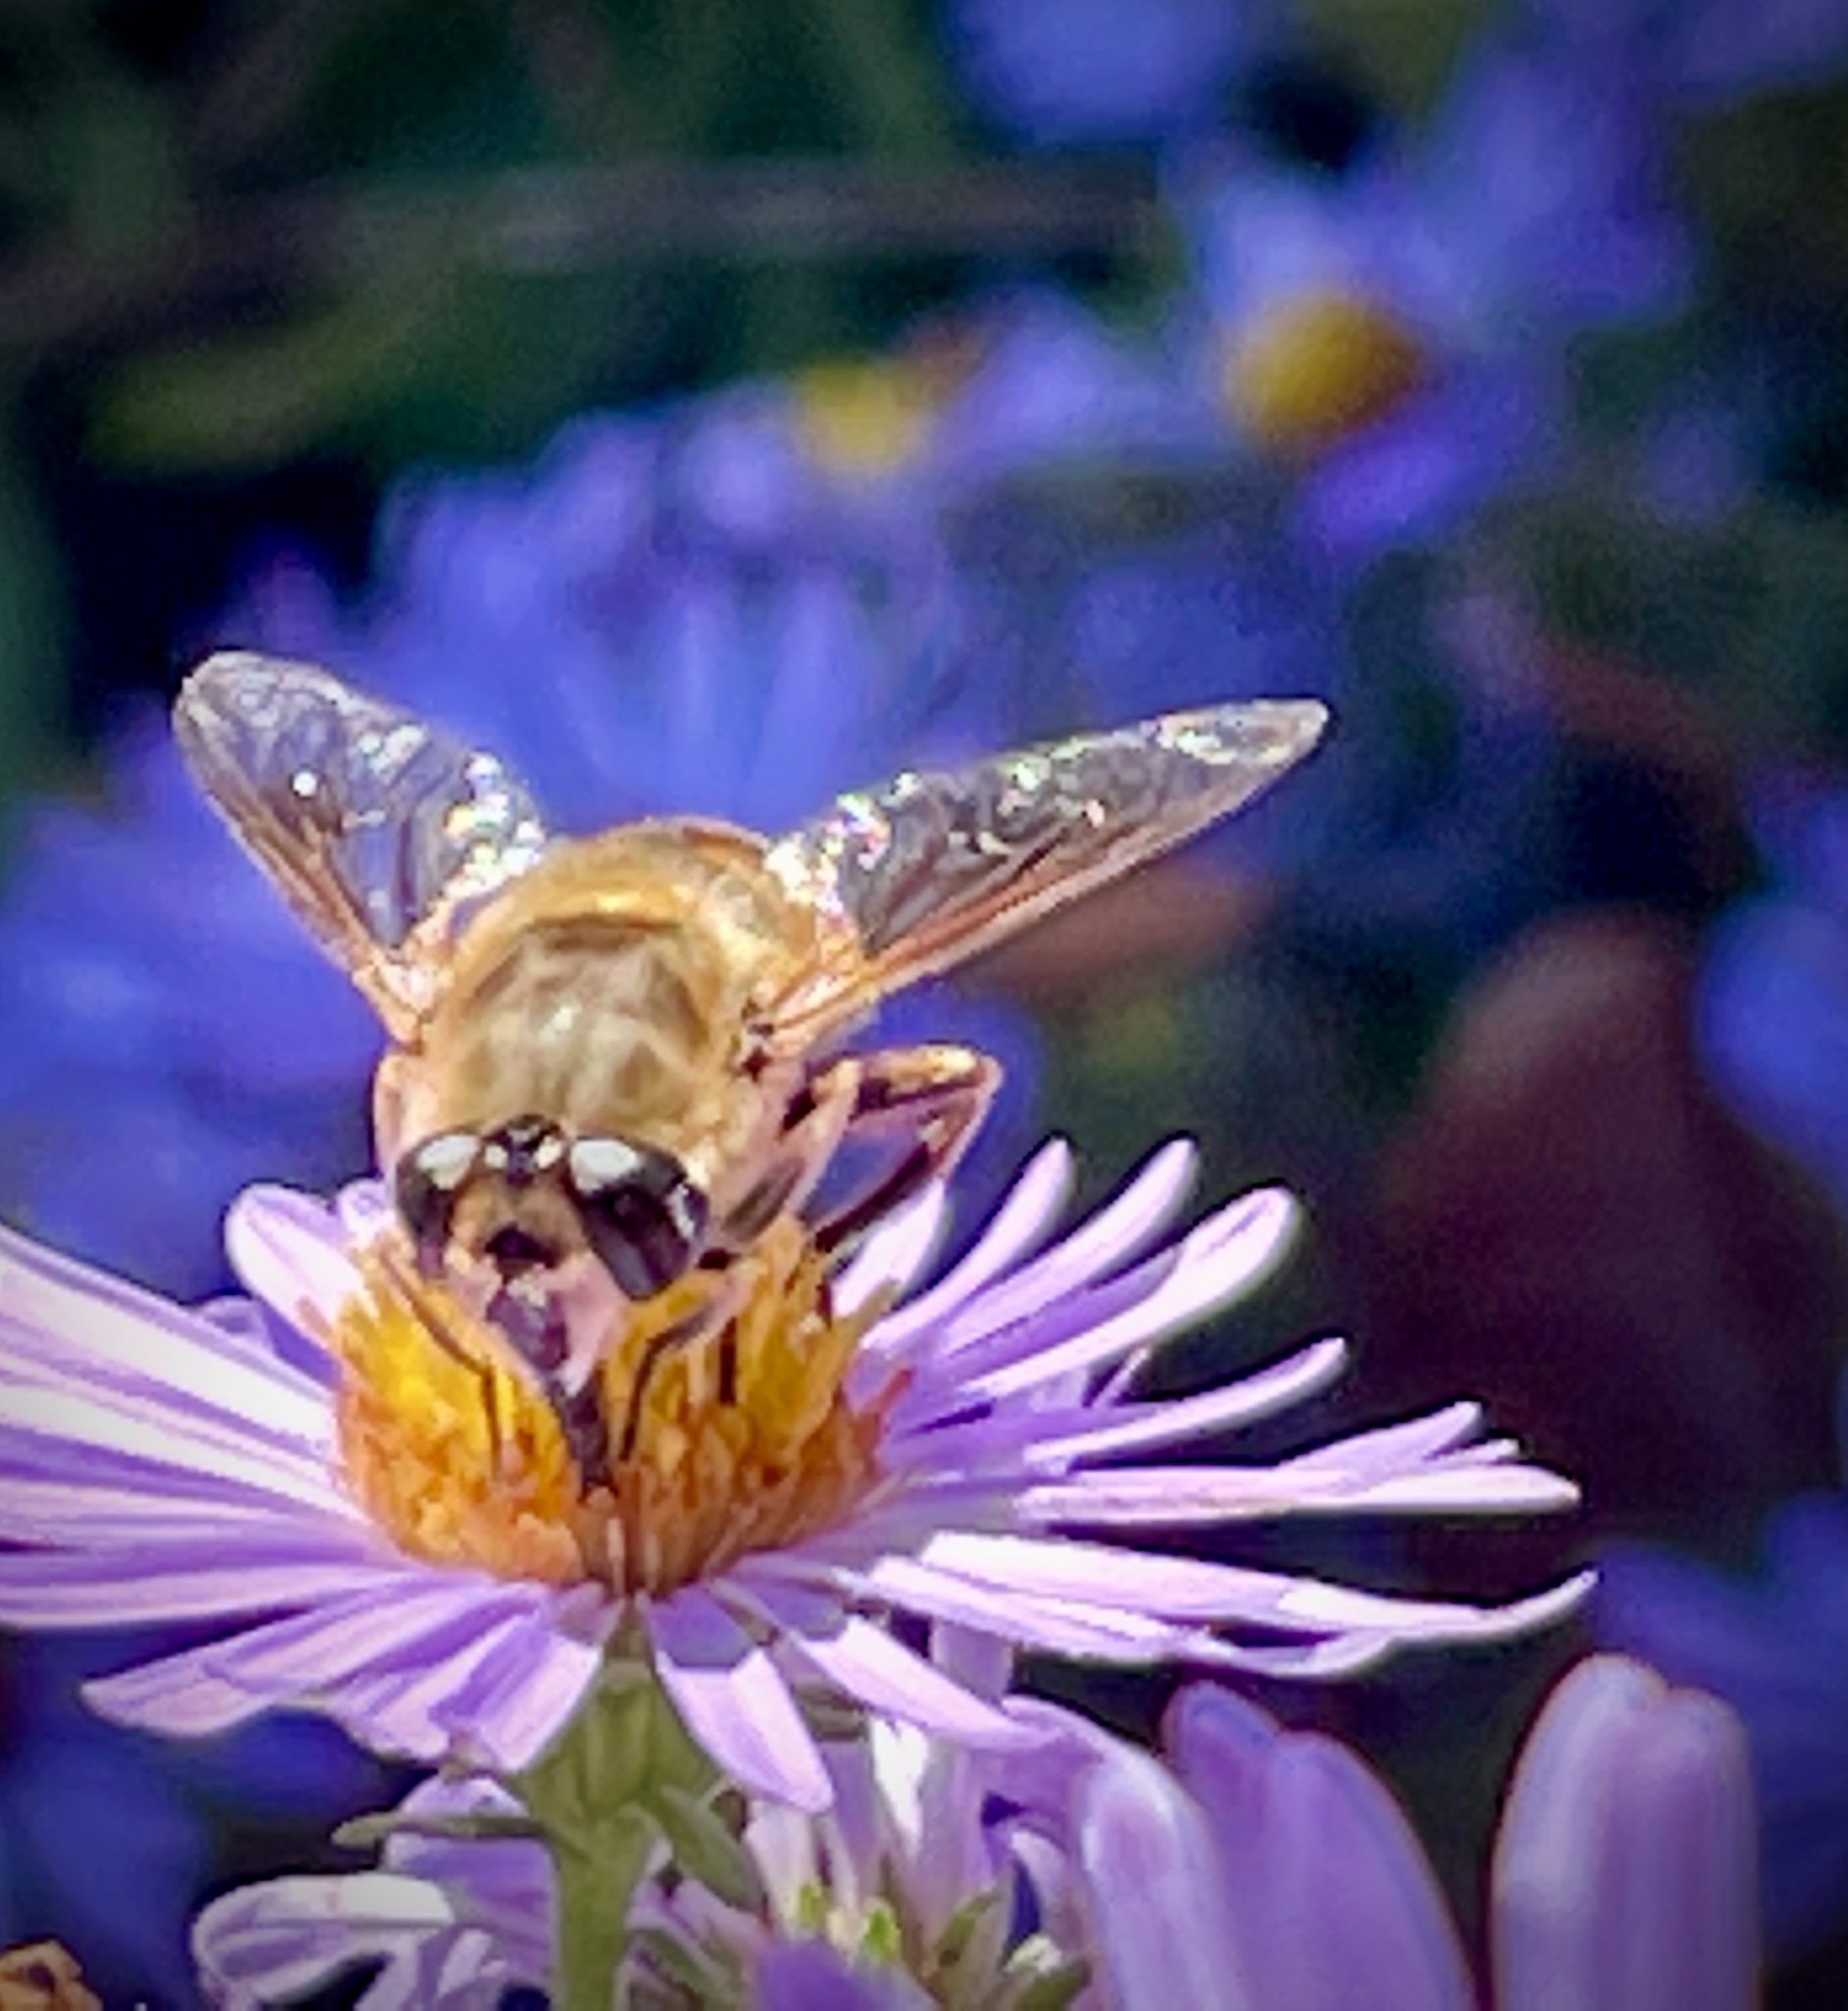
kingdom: Animalia
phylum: Arthropoda
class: Insecta
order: Diptera
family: Syrphidae
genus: Eristalis
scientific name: Eristalis tenax
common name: Drone fly
